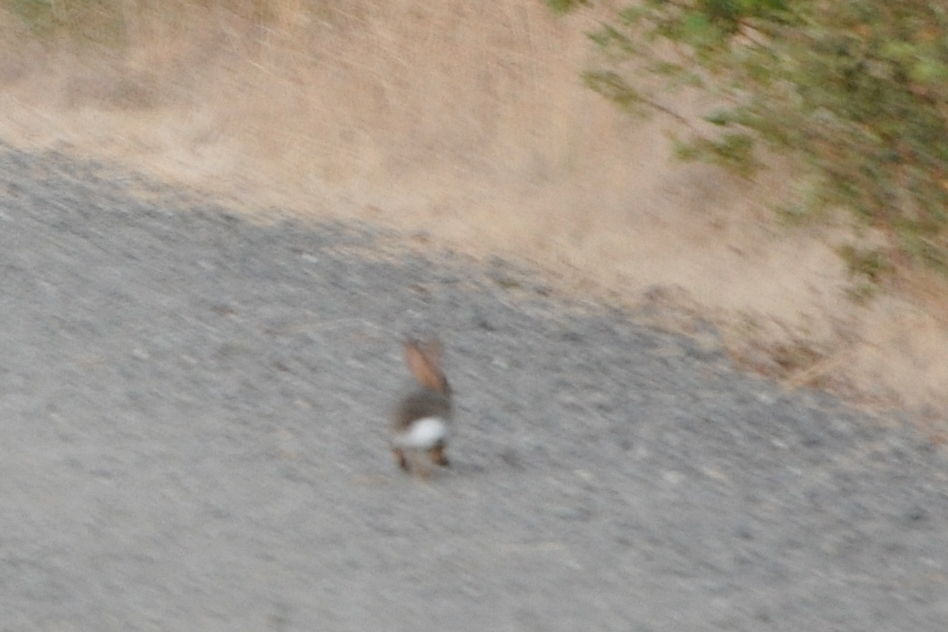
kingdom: Animalia
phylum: Chordata
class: Mammalia
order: Lagomorpha
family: Leporidae
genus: Sylvilagus
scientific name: Sylvilagus audubonii
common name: Desert cottontail
